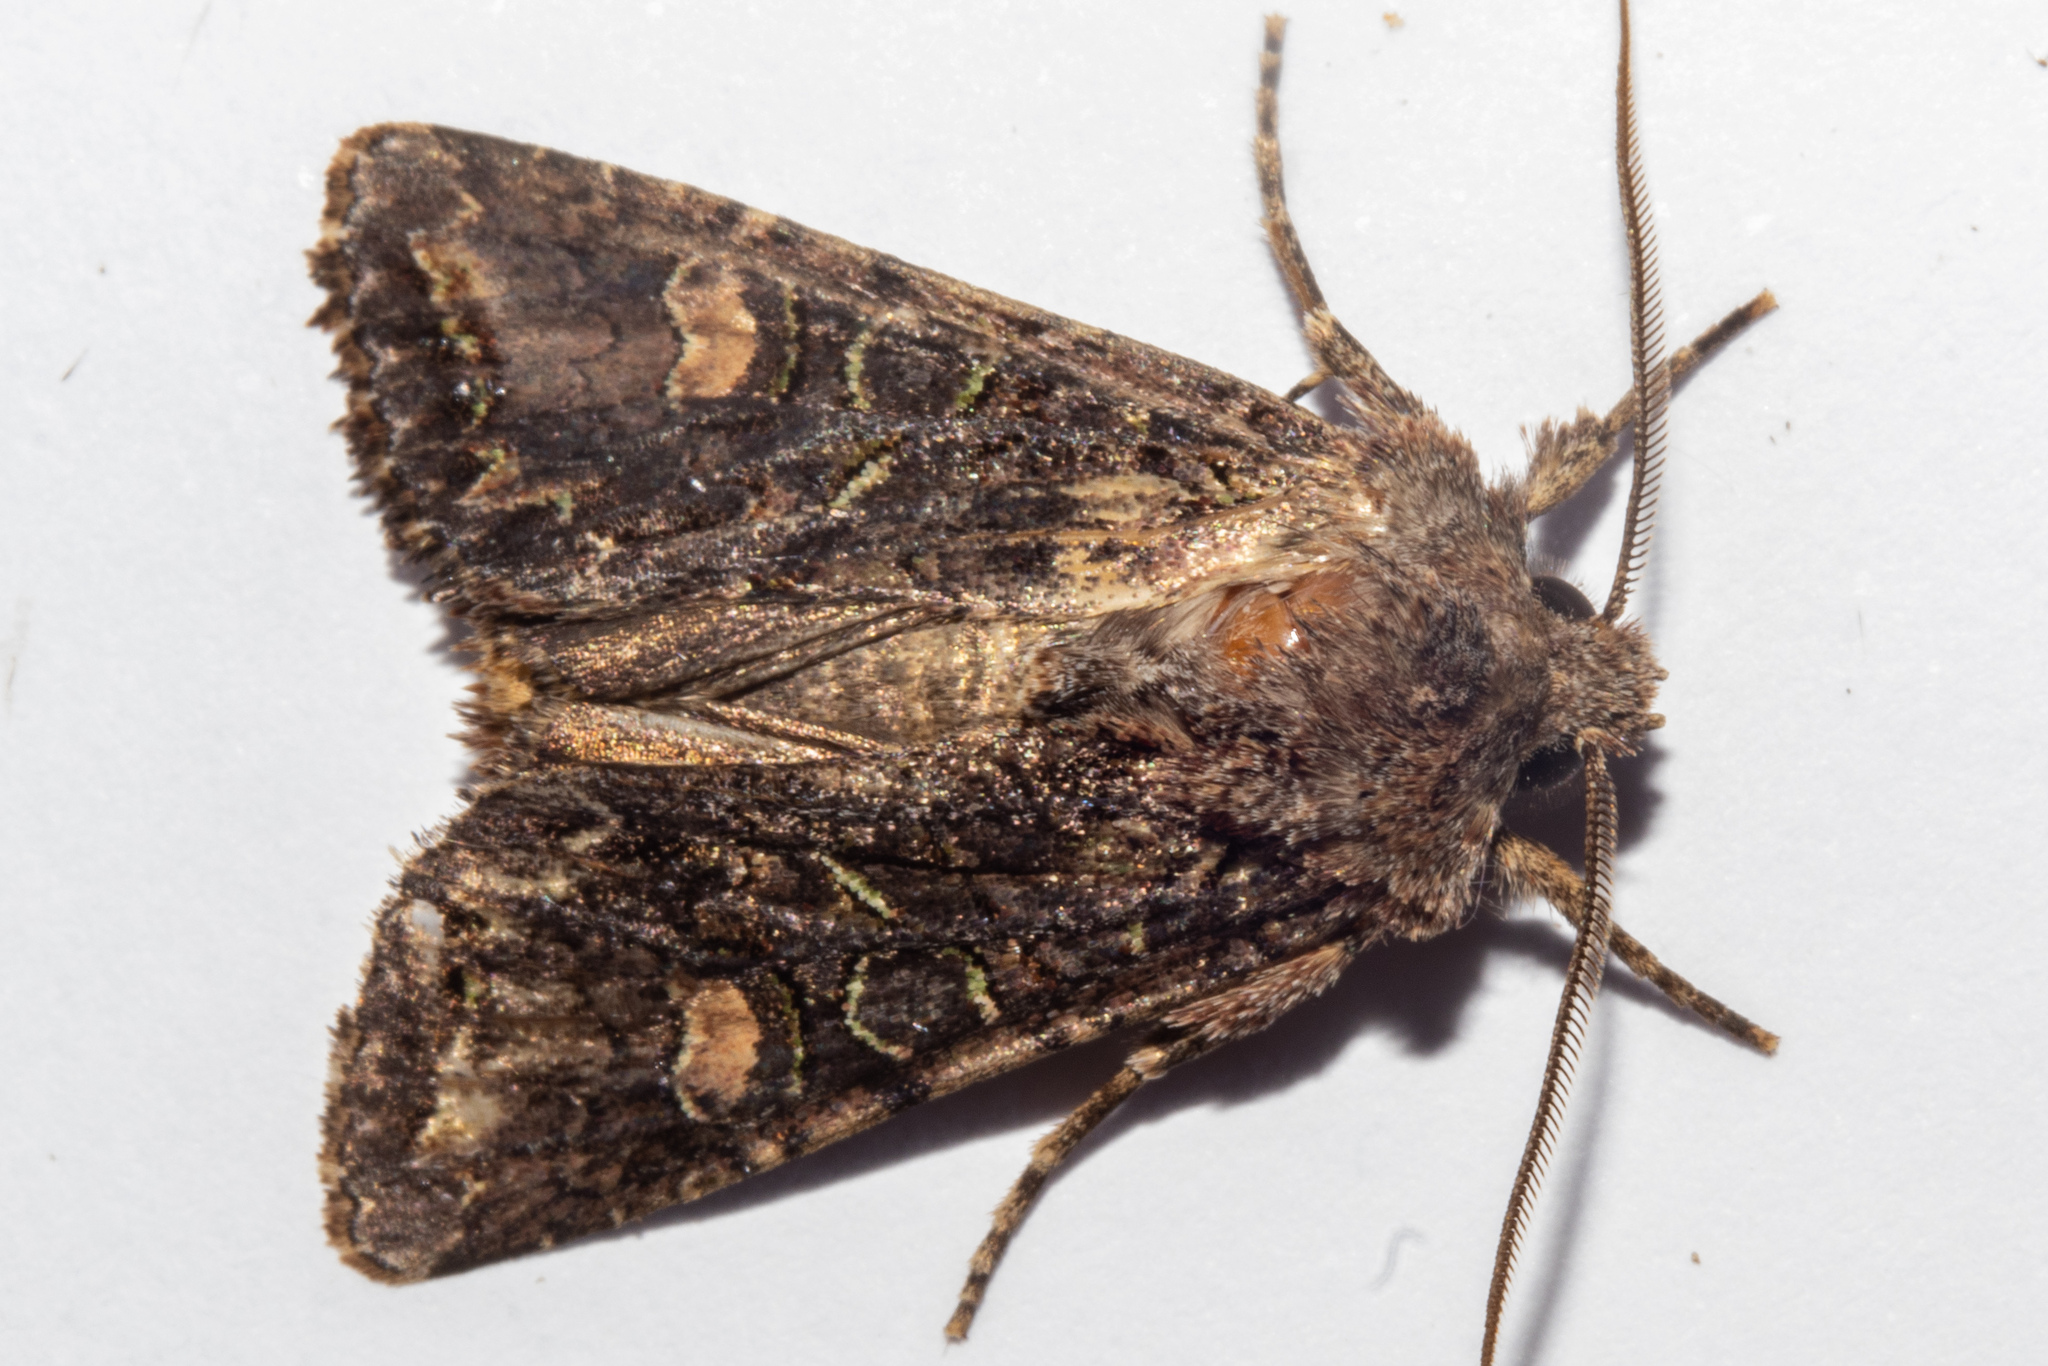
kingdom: Animalia
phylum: Arthropoda
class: Insecta
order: Lepidoptera
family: Noctuidae
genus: Ichneutica
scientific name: Ichneutica insignis
